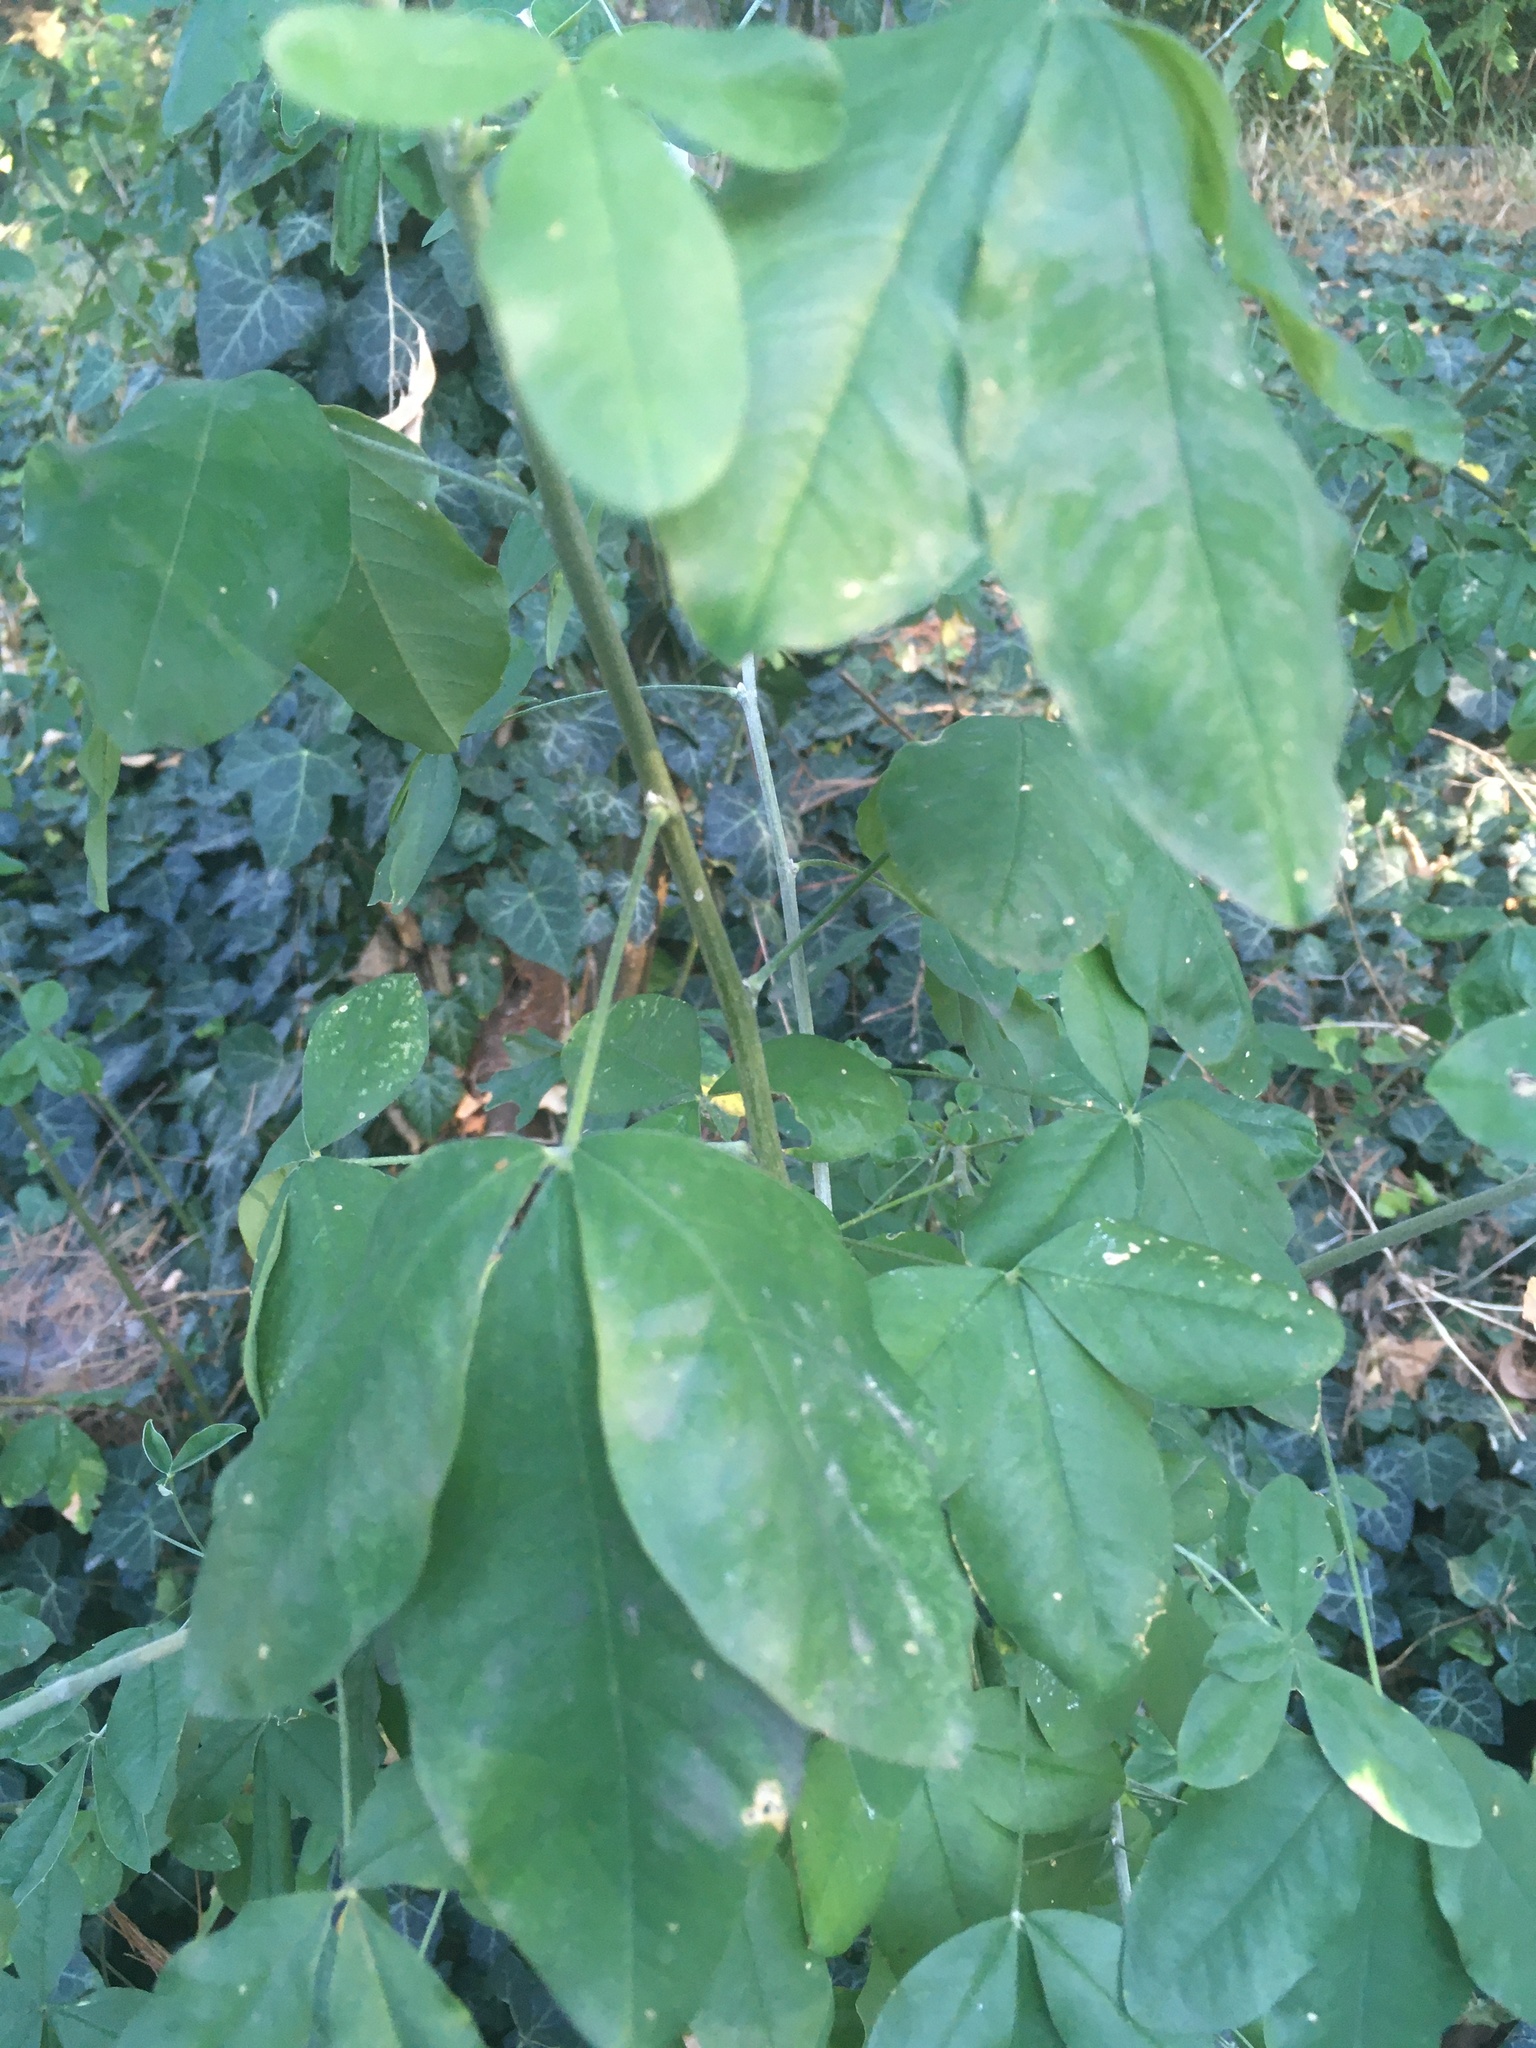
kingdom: Plantae
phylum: Tracheophyta
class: Magnoliopsida
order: Fabales
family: Fabaceae
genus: Laburnum
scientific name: Laburnum anagyroides
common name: Laburnum
